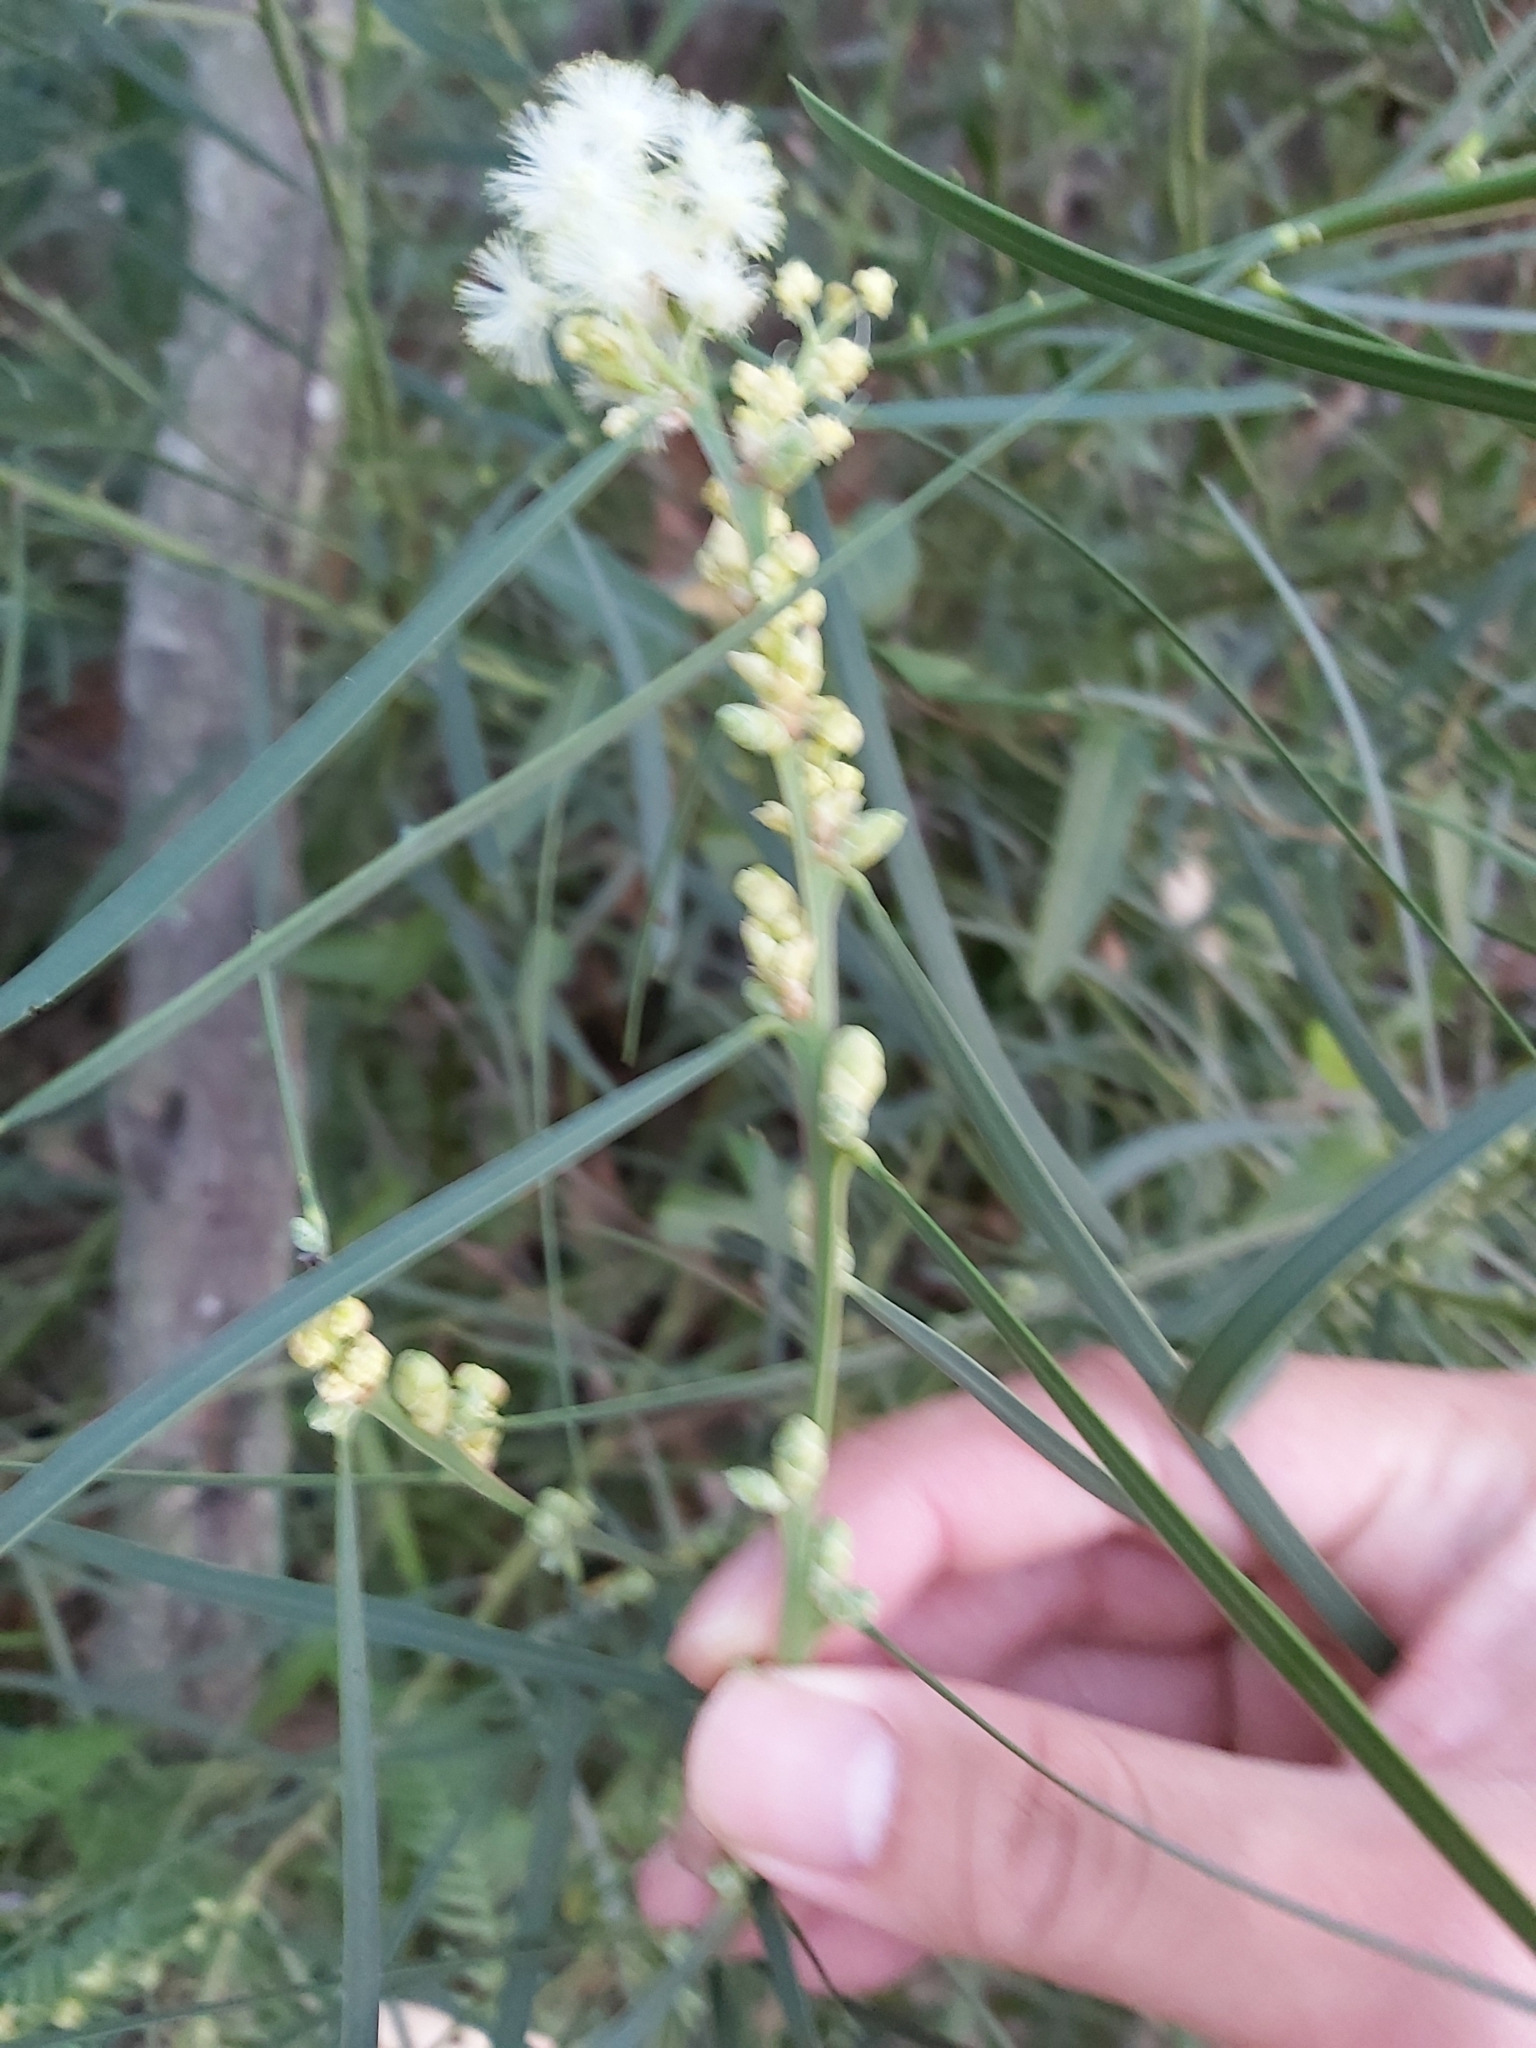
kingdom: Plantae
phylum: Tracheophyta
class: Magnoliopsida
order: Fabales
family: Fabaceae
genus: Acacia
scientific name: Acacia suaveolens
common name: Sweet acacia
